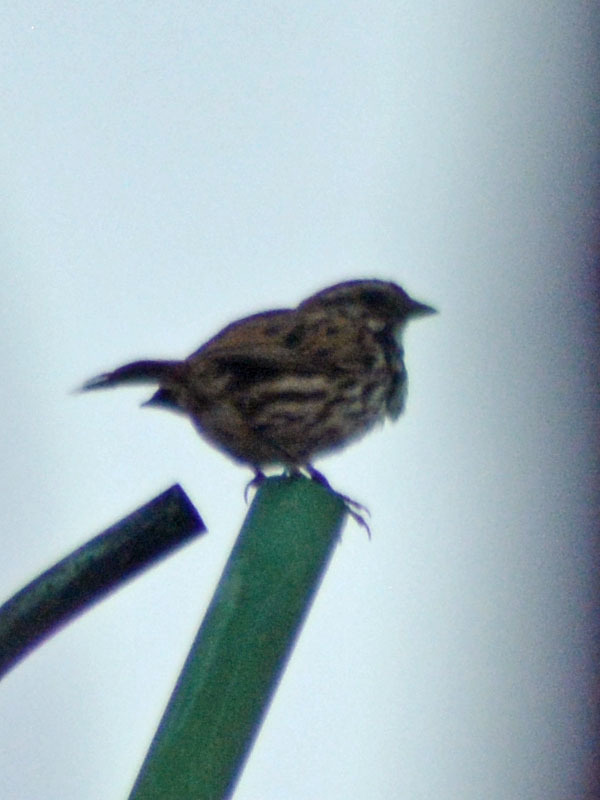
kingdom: Animalia
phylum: Chordata
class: Aves
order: Passeriformes
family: Passerellidae
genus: Melospiza
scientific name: Melospiza melodia
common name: Song sparrow
